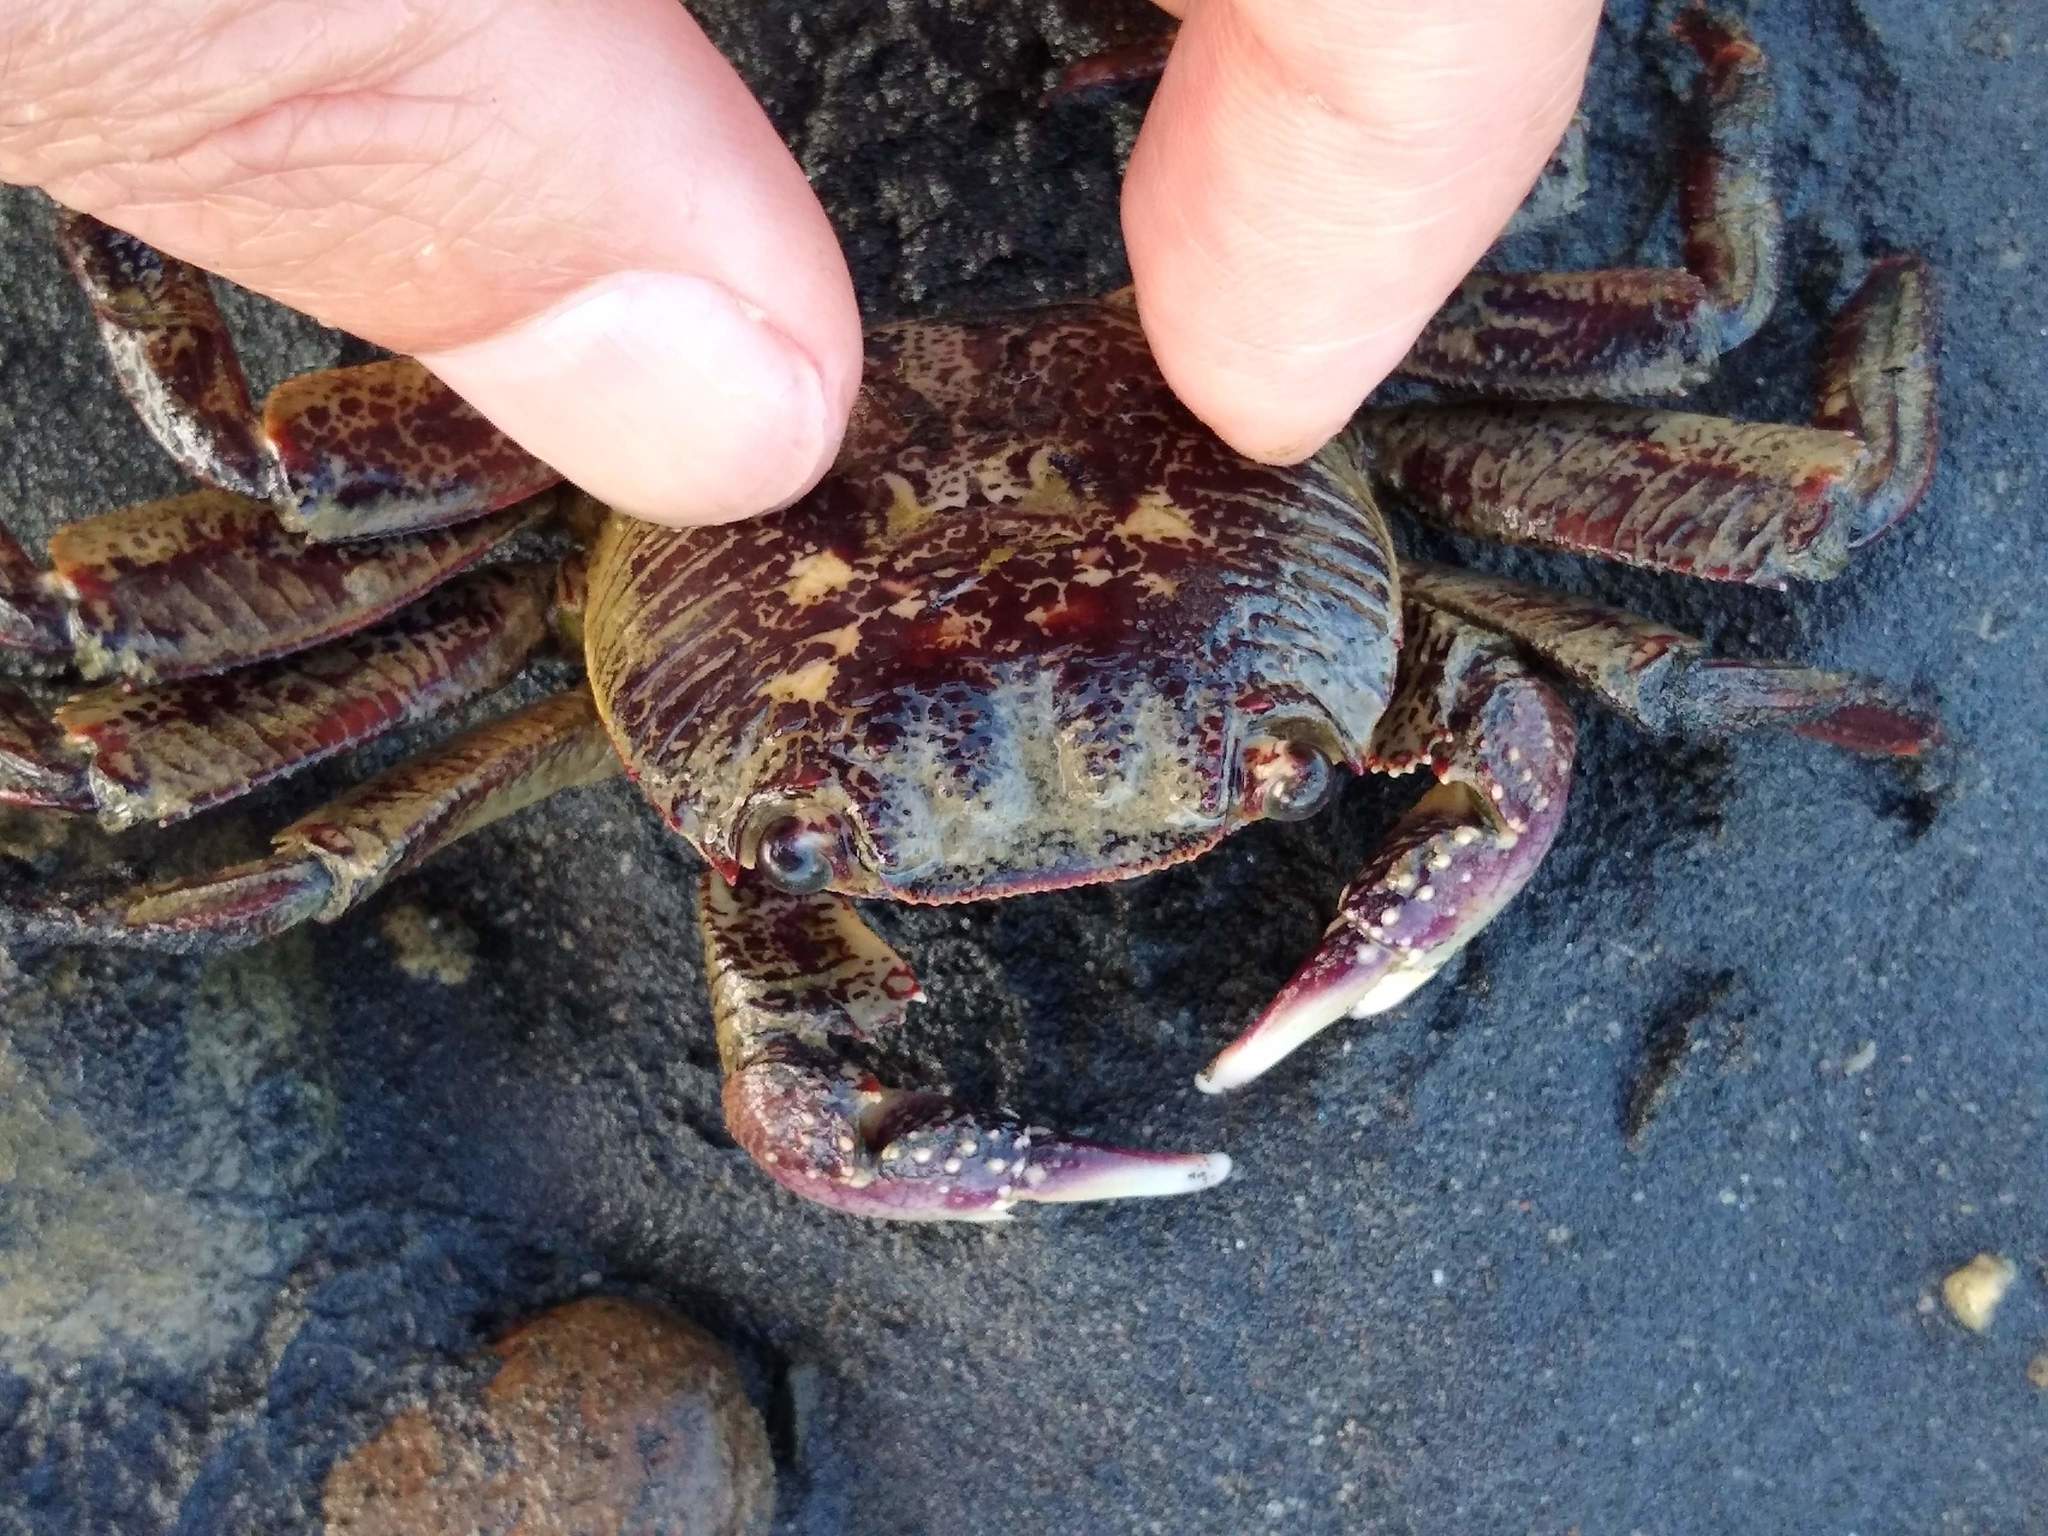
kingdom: Animalia
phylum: Arthropoda
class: Malacostraca
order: Decapoda
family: Grapsidae
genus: Leptograpsus
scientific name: Leptograpsus variegatus
